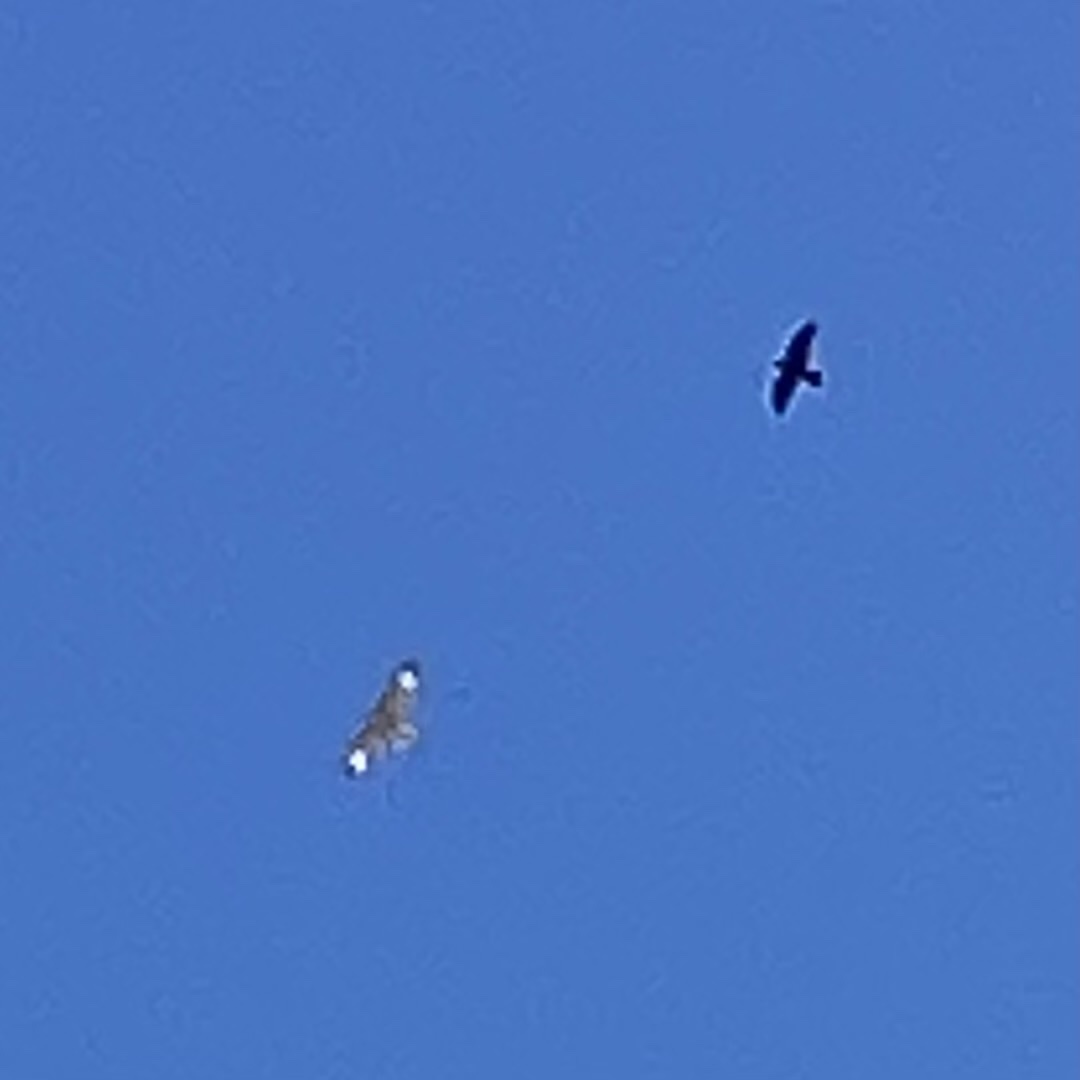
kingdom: Animalia
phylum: Chordata
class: Aves
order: Accipitriformes
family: Accipitridae
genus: Buteo
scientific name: Buteo lineatus
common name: Red-shouldered hawk
